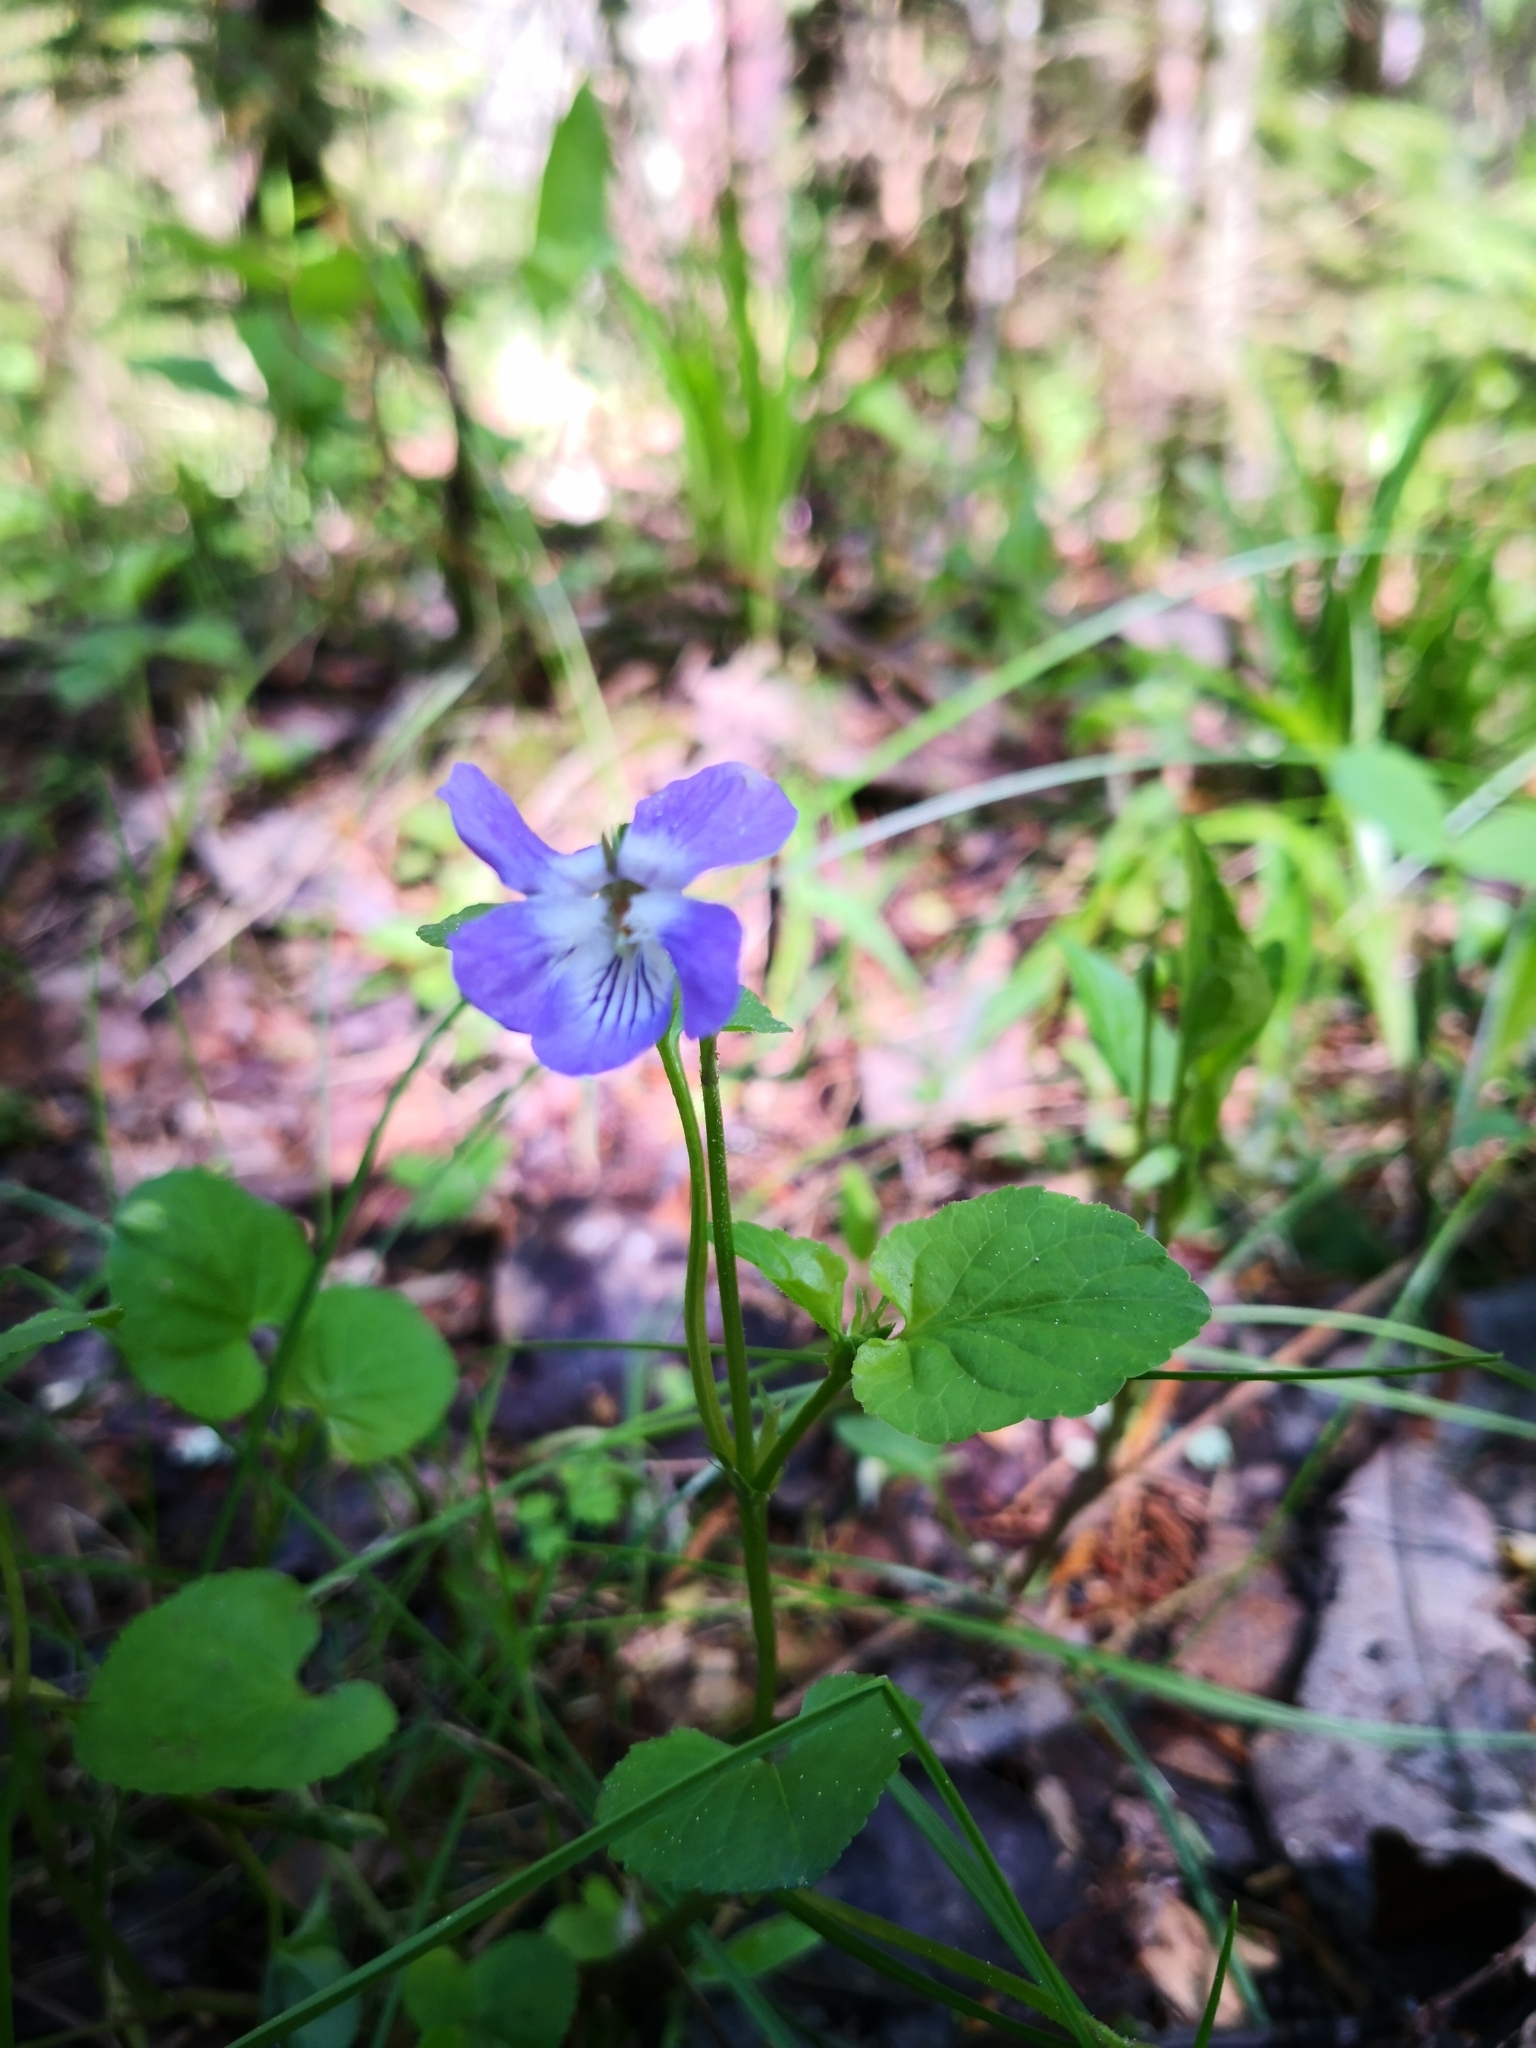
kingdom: Plantae
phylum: Tracheophyta
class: Magnoliopsida
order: Malpighiales
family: Violaceae
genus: Viola
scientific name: Viola riviniana
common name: Common dog-violet
